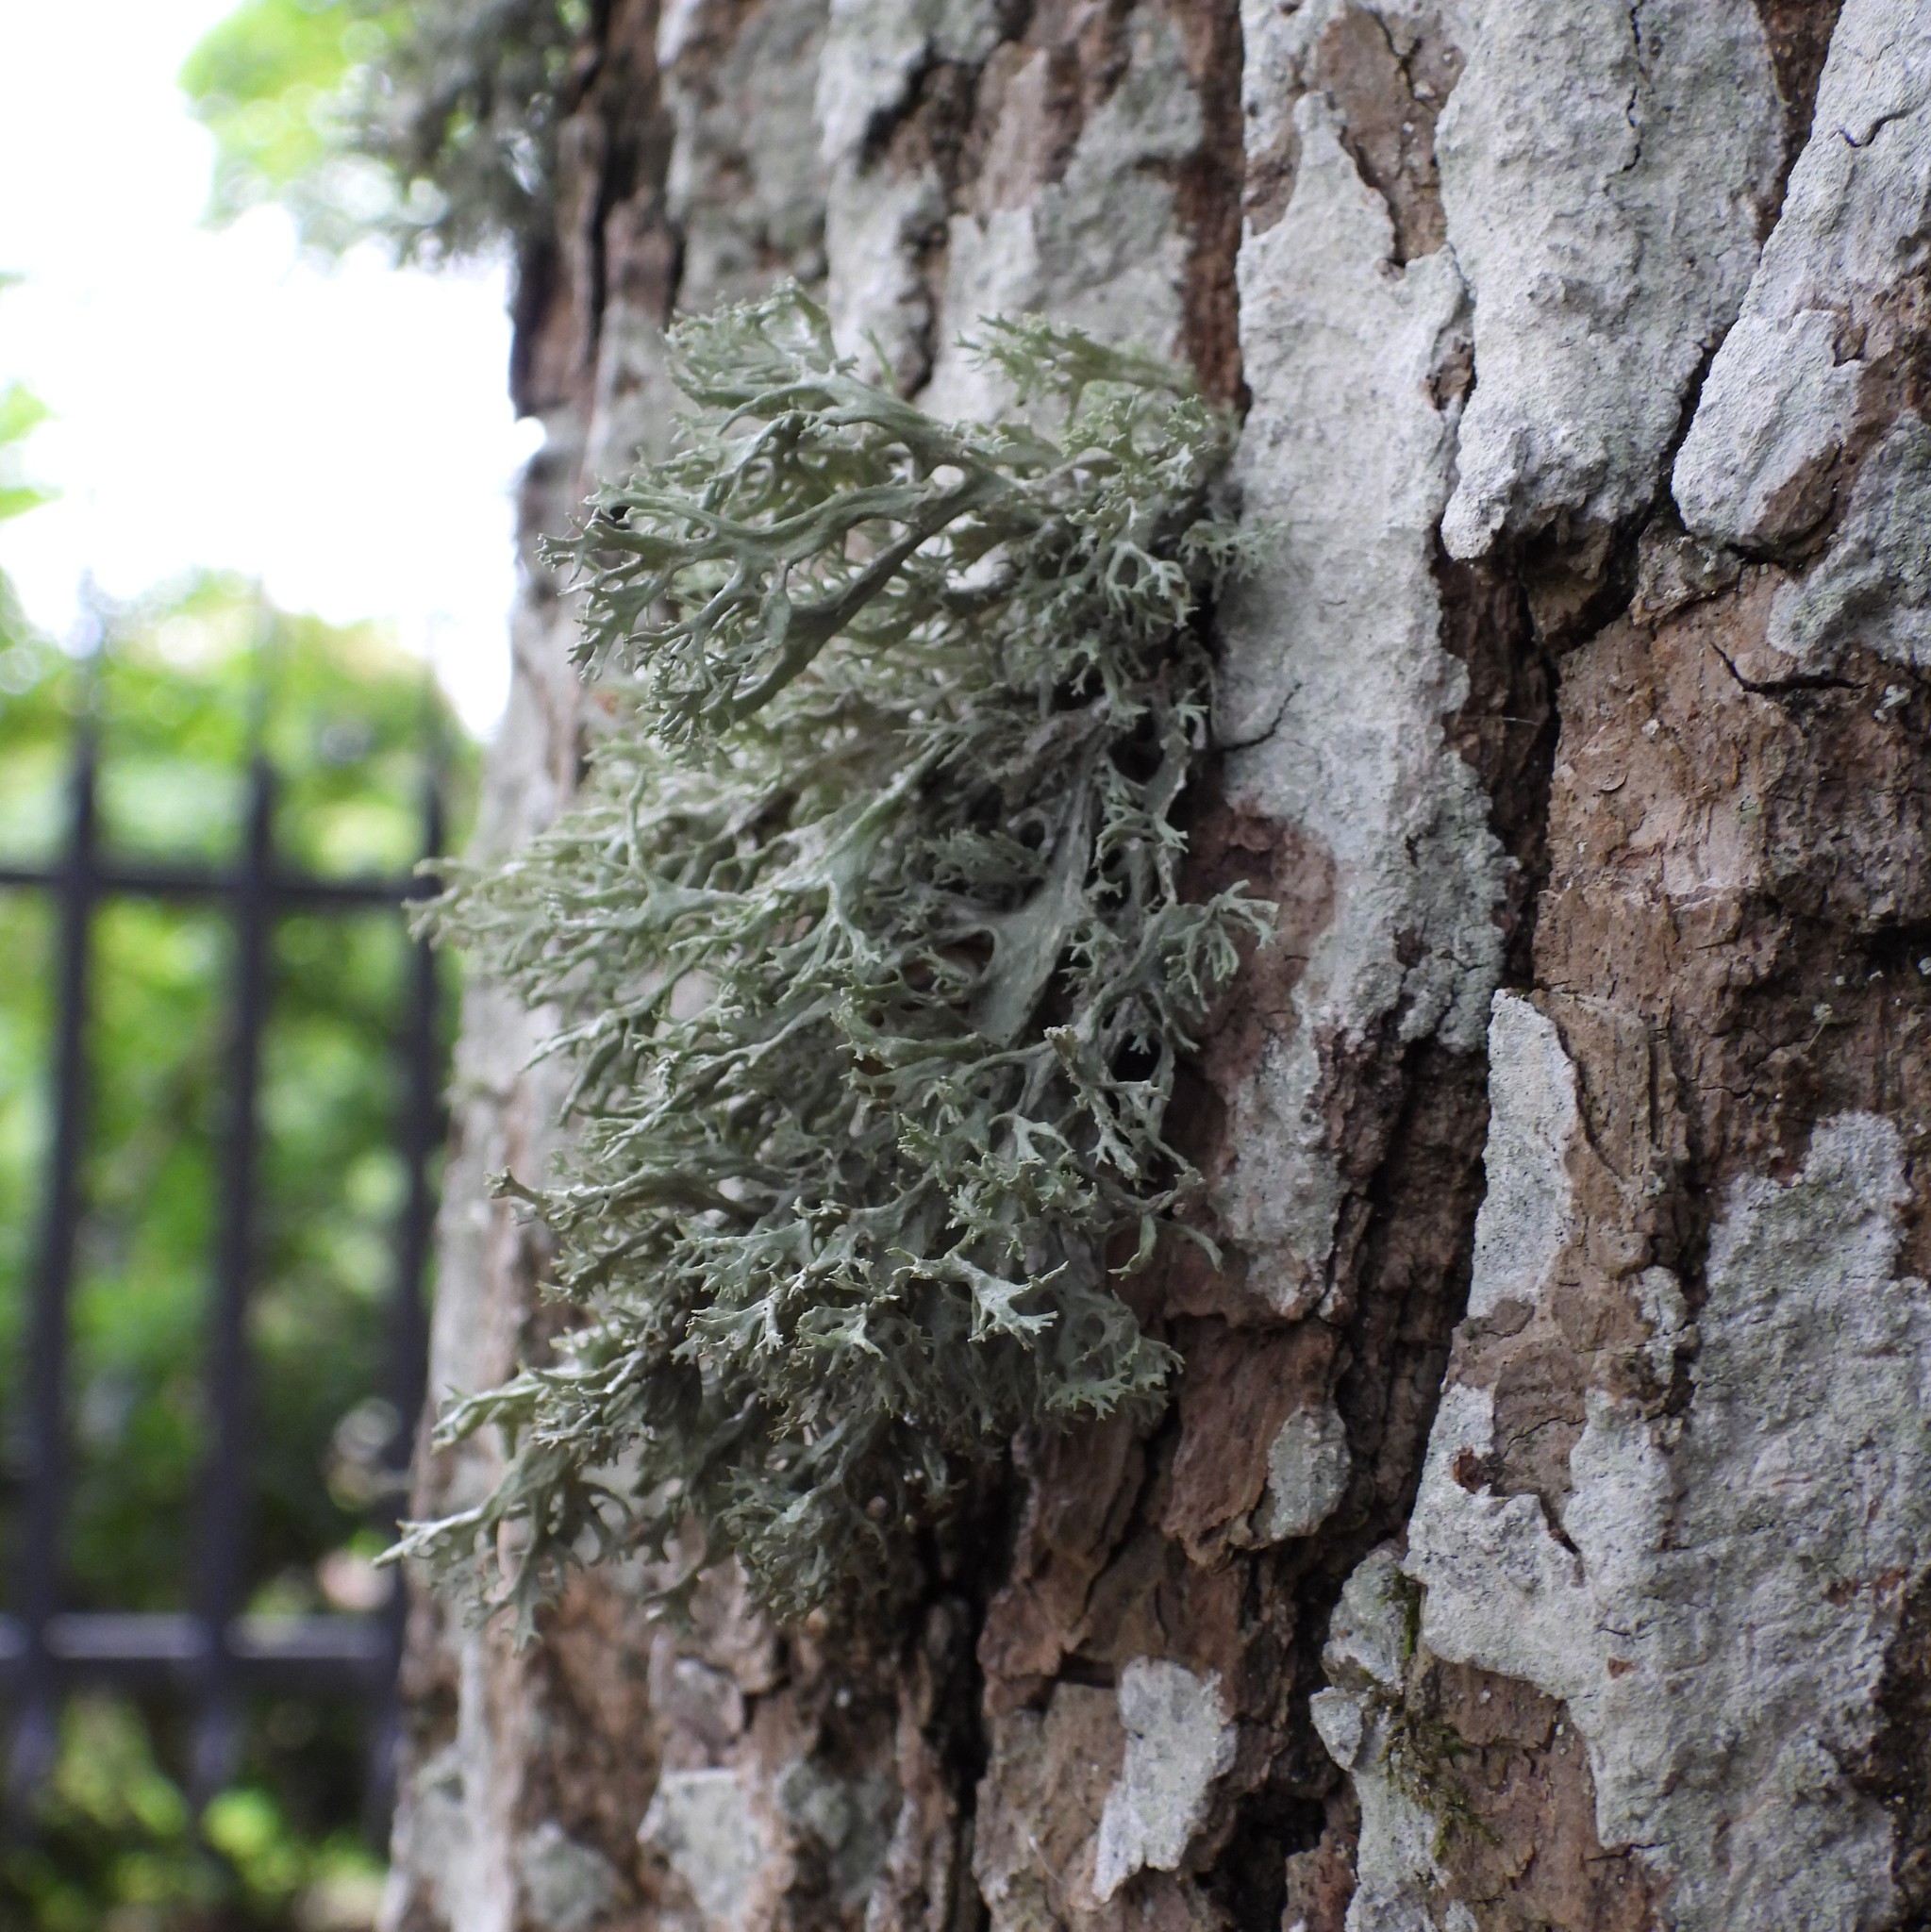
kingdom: Fungi
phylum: Ascomycota
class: Lecanoromycetes
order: Lecanorales
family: Parmeliaceae
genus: Evernia
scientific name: Evernia prunastri
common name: Oak moss
